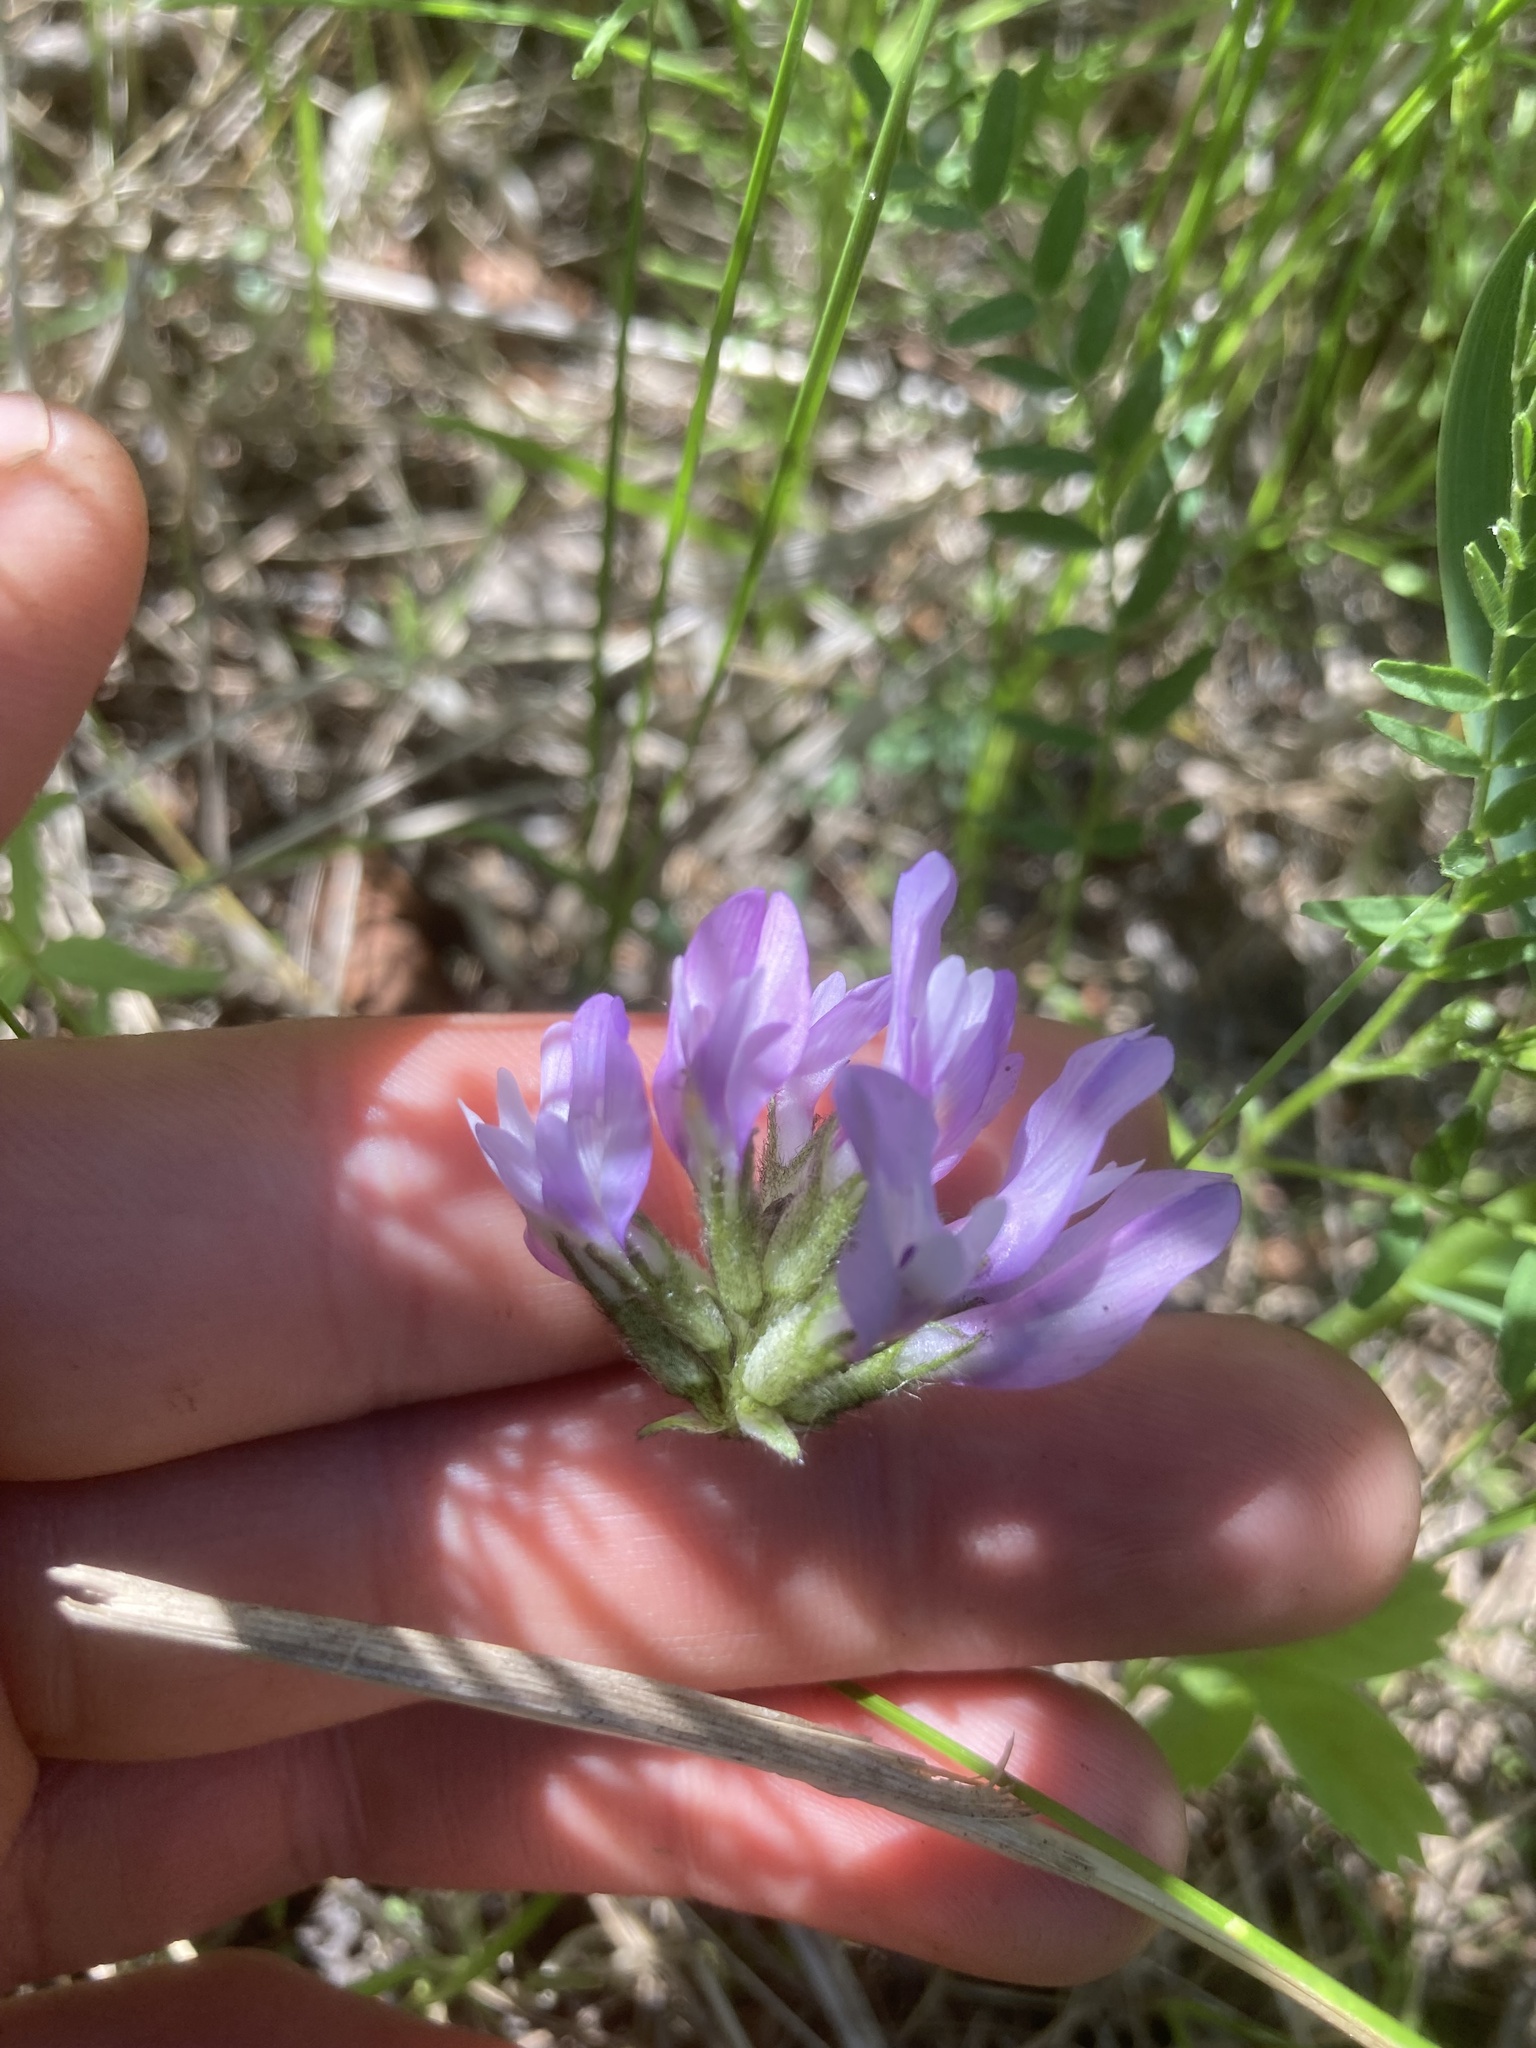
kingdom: Plantae
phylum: Tracheophyta
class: Magnoliopsida
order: Fabales
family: Fabaceae
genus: Astragalus
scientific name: Astragalus agrestis
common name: Field milk-vetch
